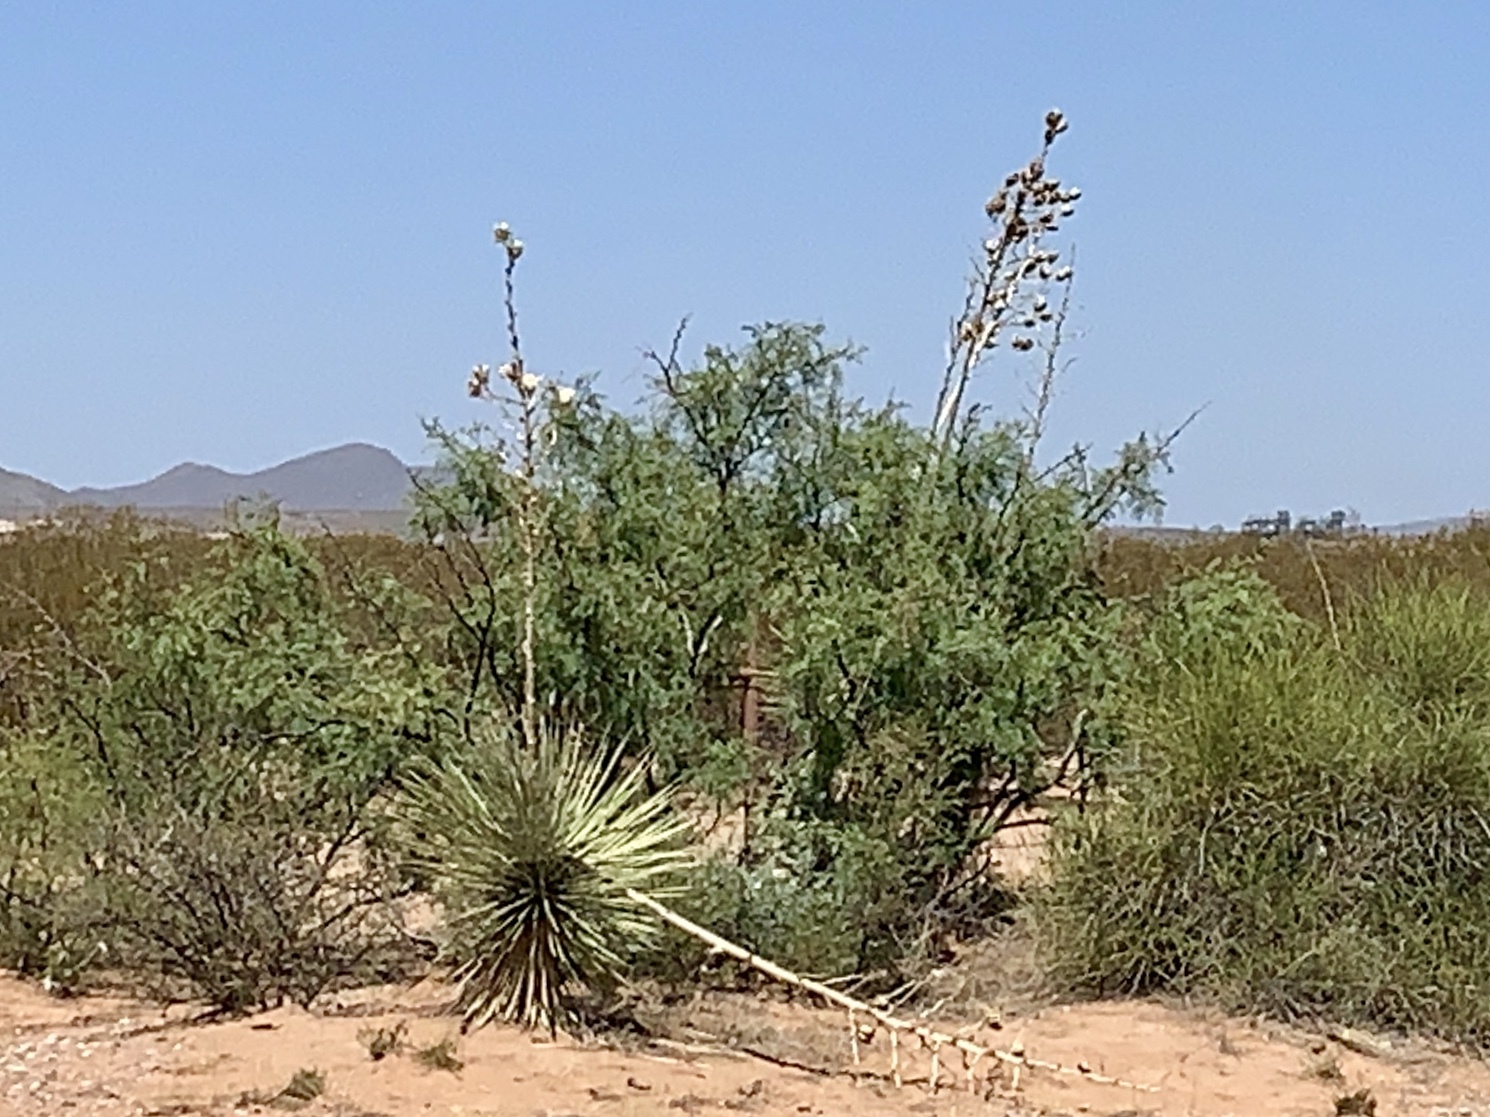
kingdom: Plantae
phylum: Tracheophyta
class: Liliopsida
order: Asparagales
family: Asparagaceae
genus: Yucca
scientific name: Yucca elata
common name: Palmella
